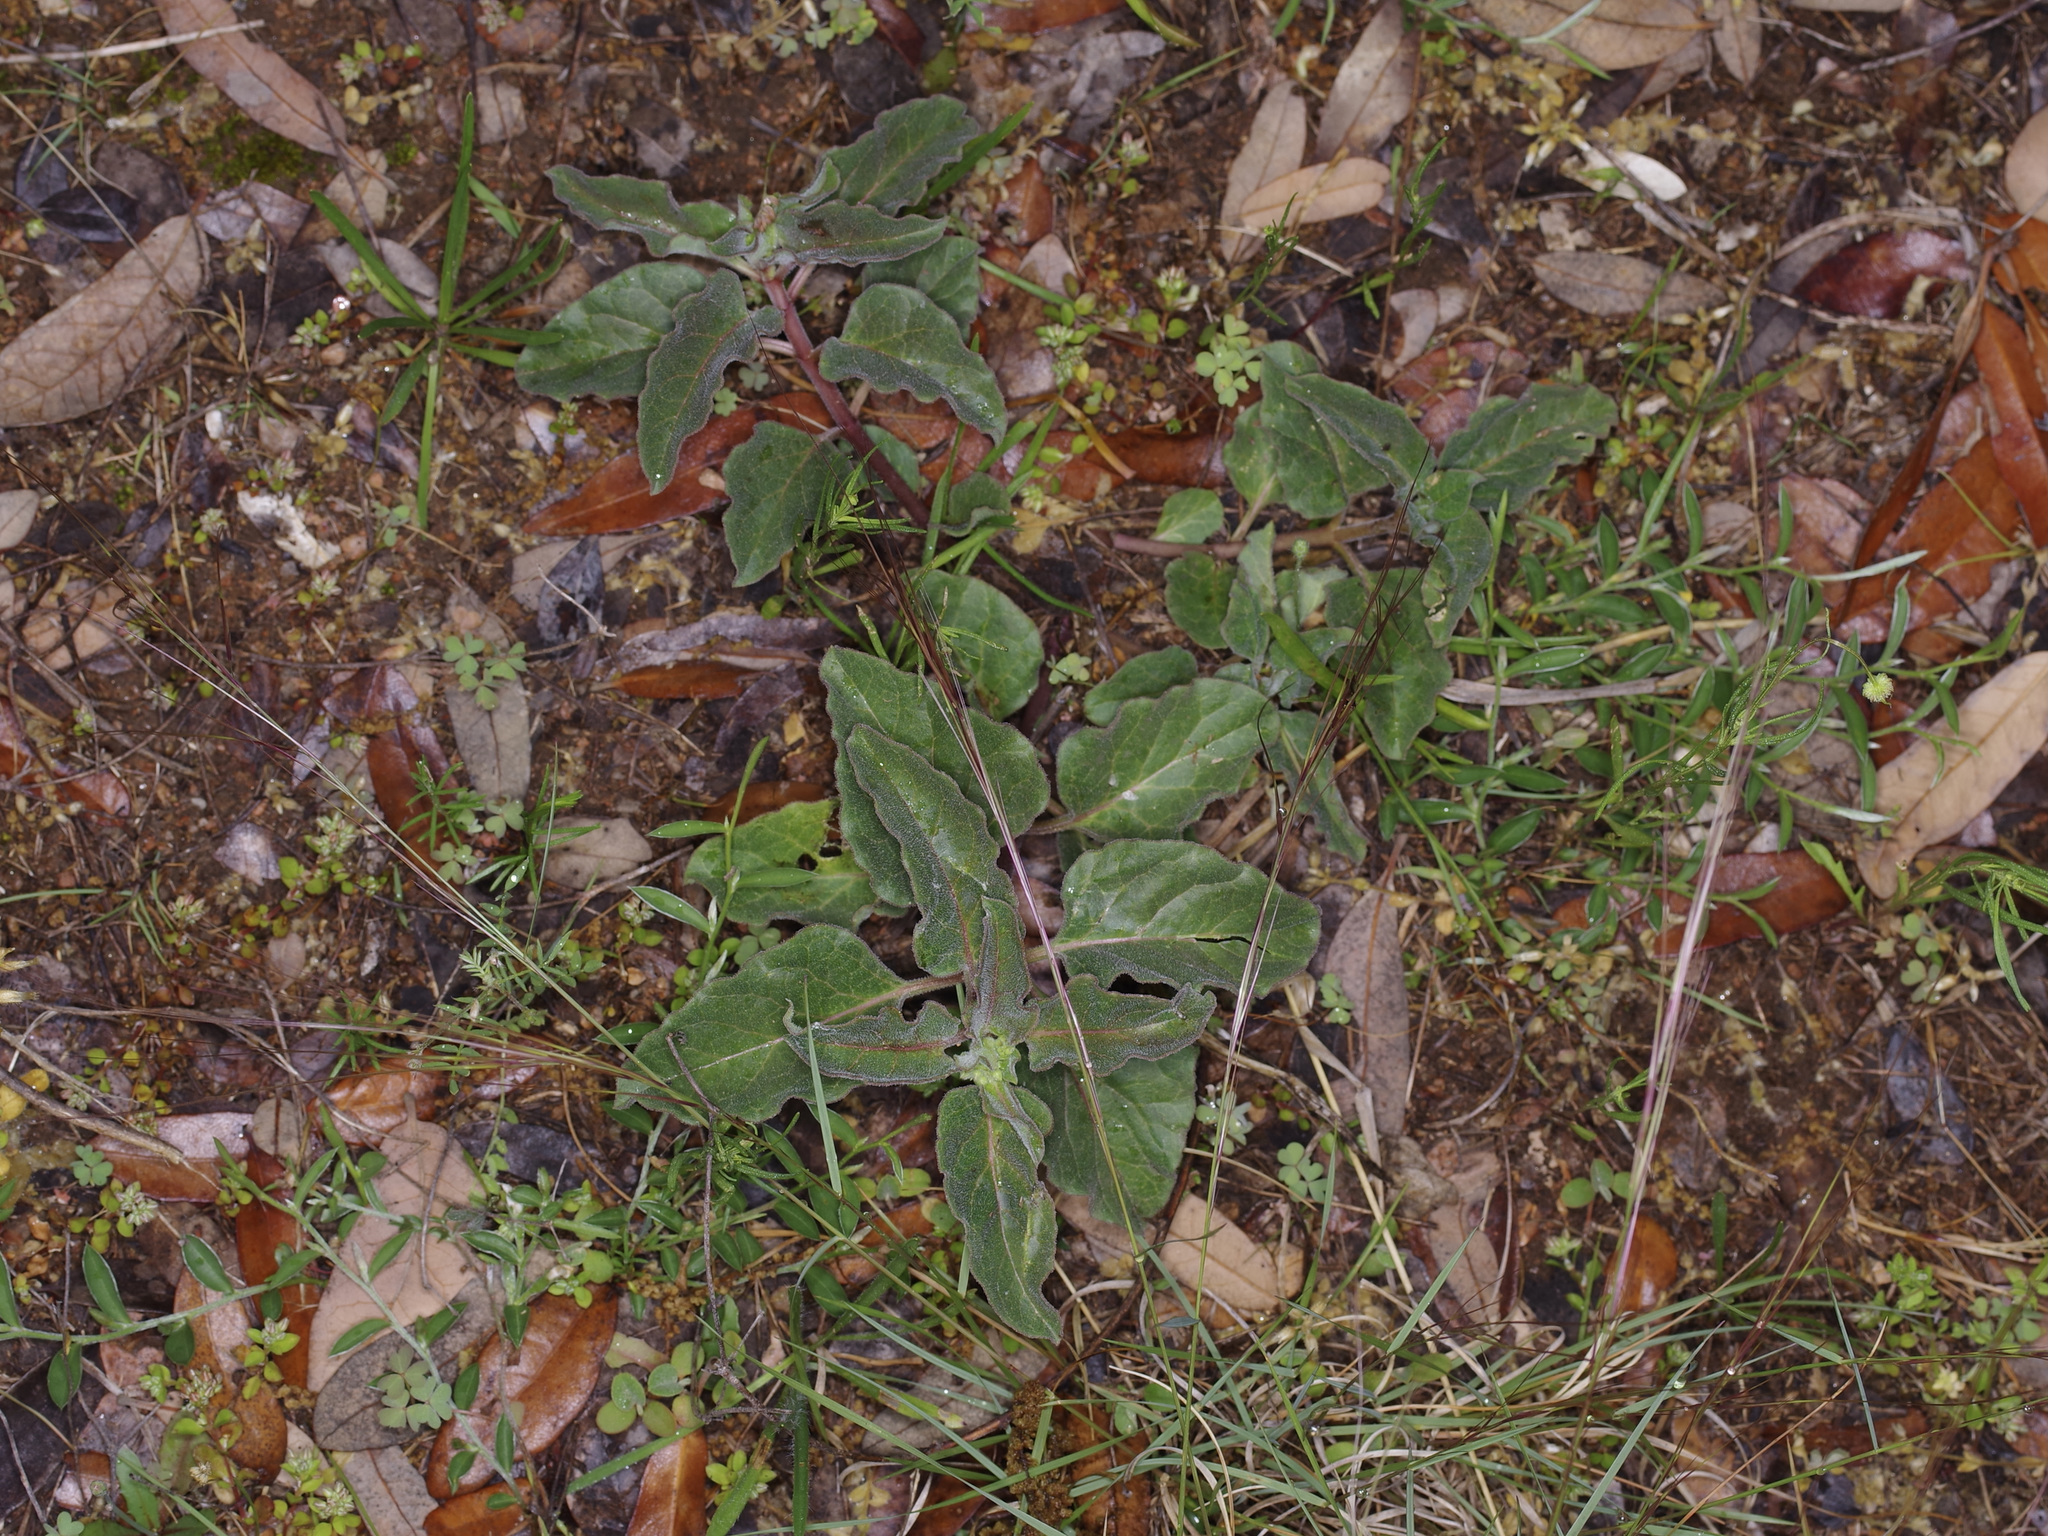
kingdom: Plantae
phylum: Tracheophyta
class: Magnoliopsida
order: Gentianales
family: Apocynaceae
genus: Asclepias
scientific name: Asclepias oenotheroides
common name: Zizotes milkweed
